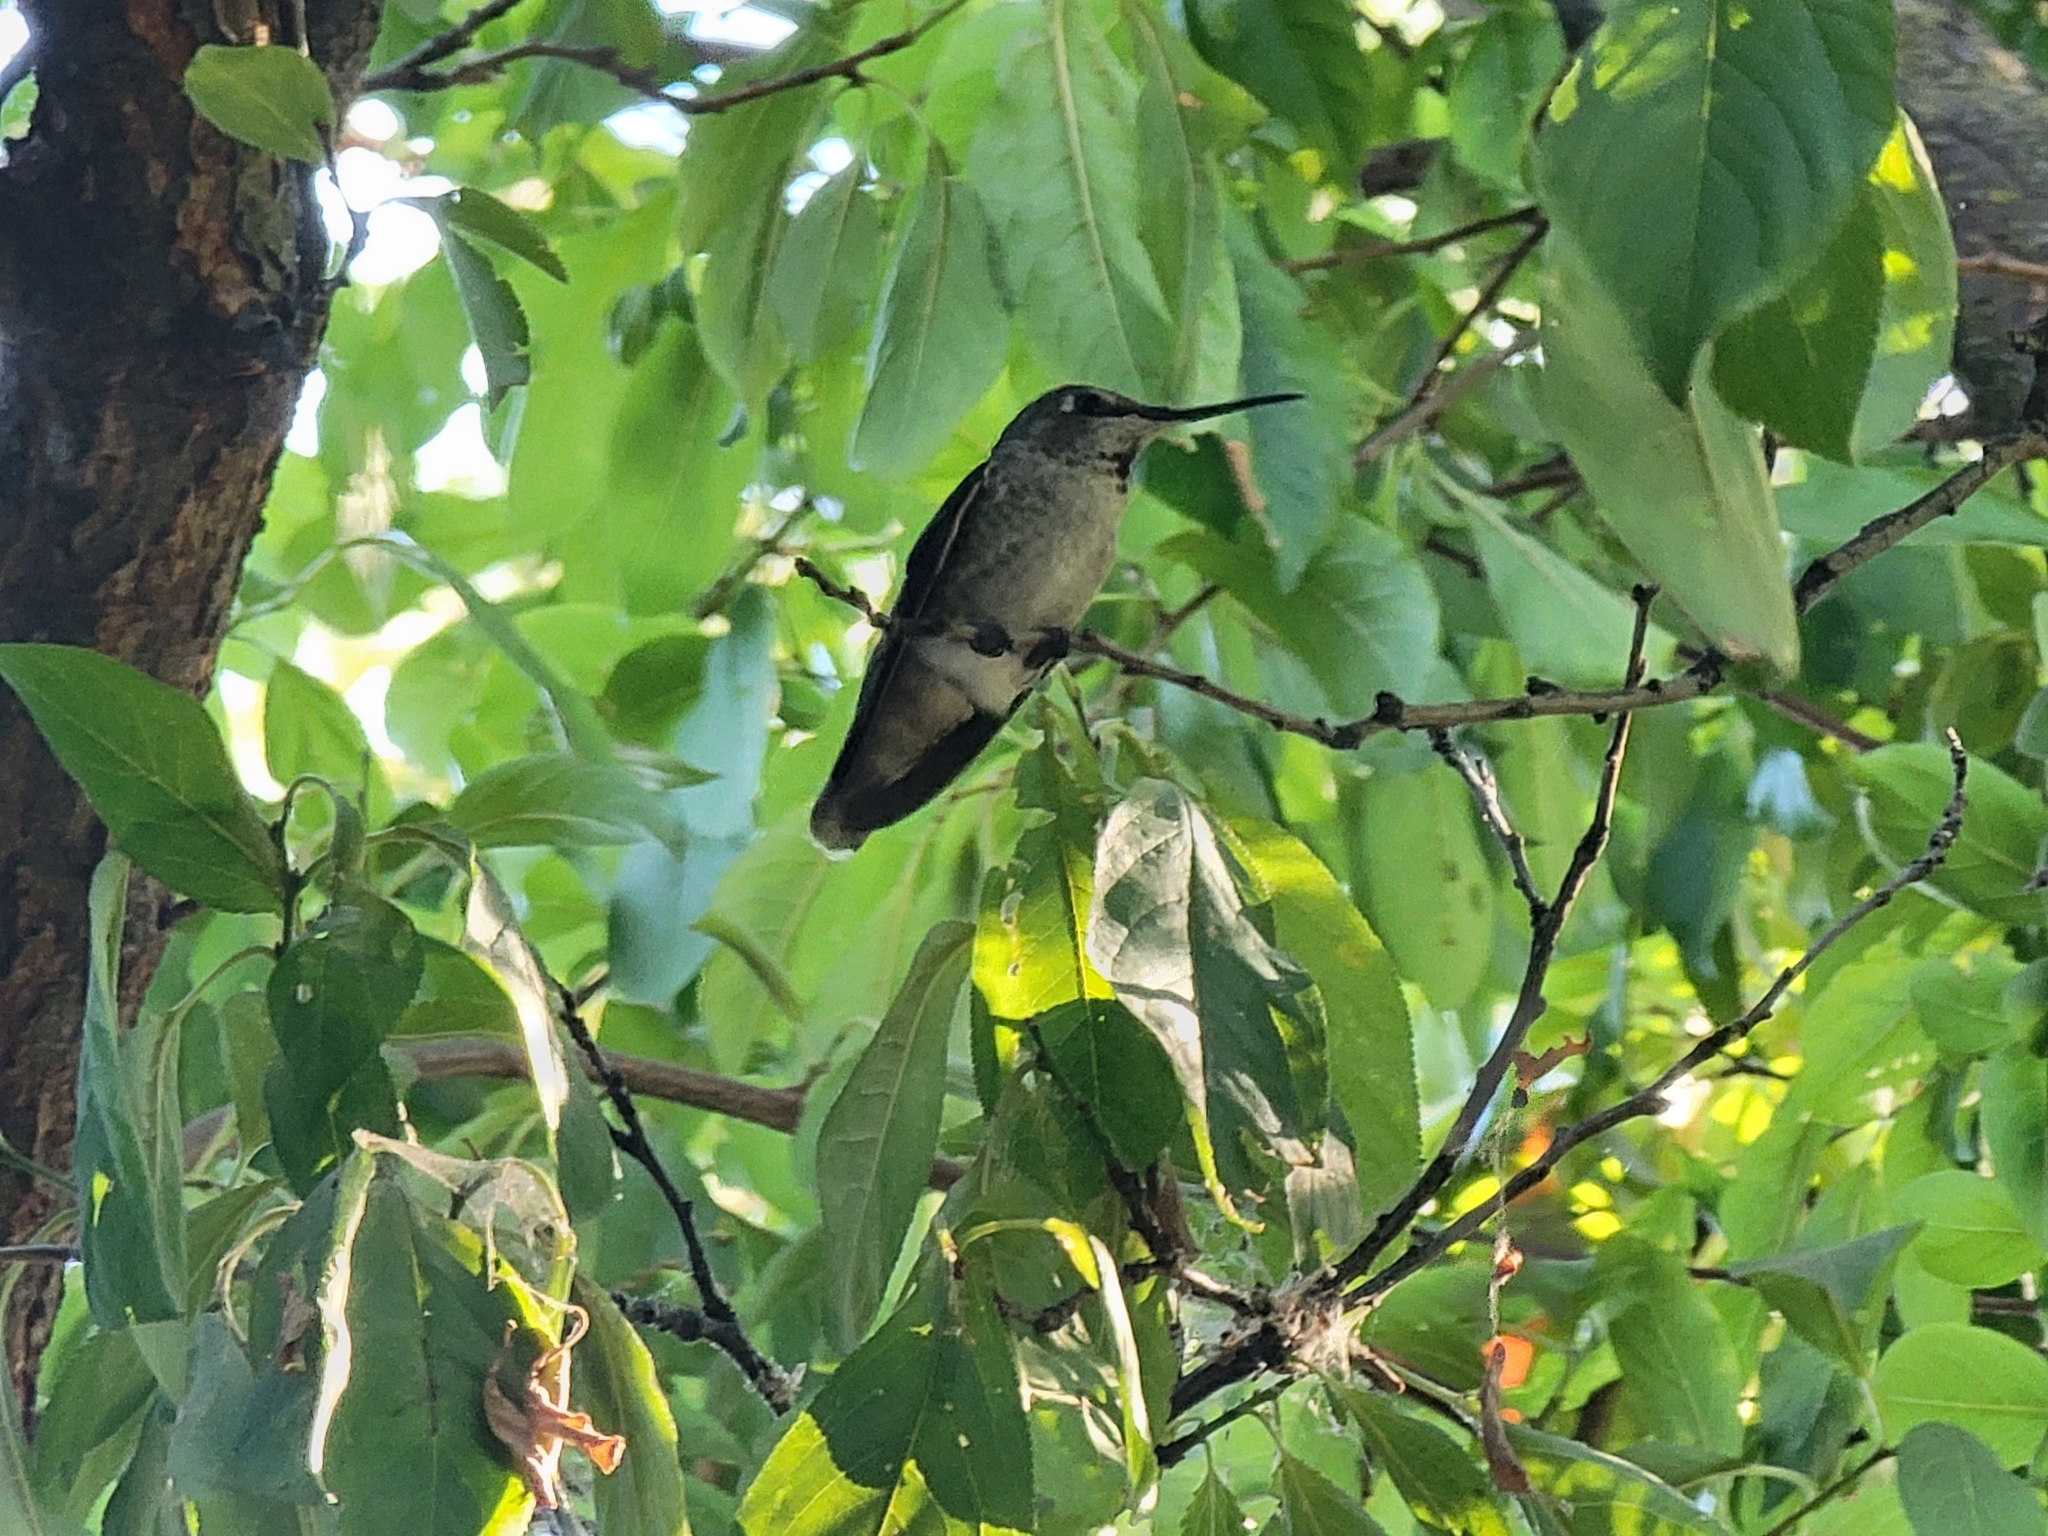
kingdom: Animalia
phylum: Chordata
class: Aves
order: Apodiformes
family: Trochilidae
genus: Calypte
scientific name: Calypte anna
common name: Anna's hummingbird
